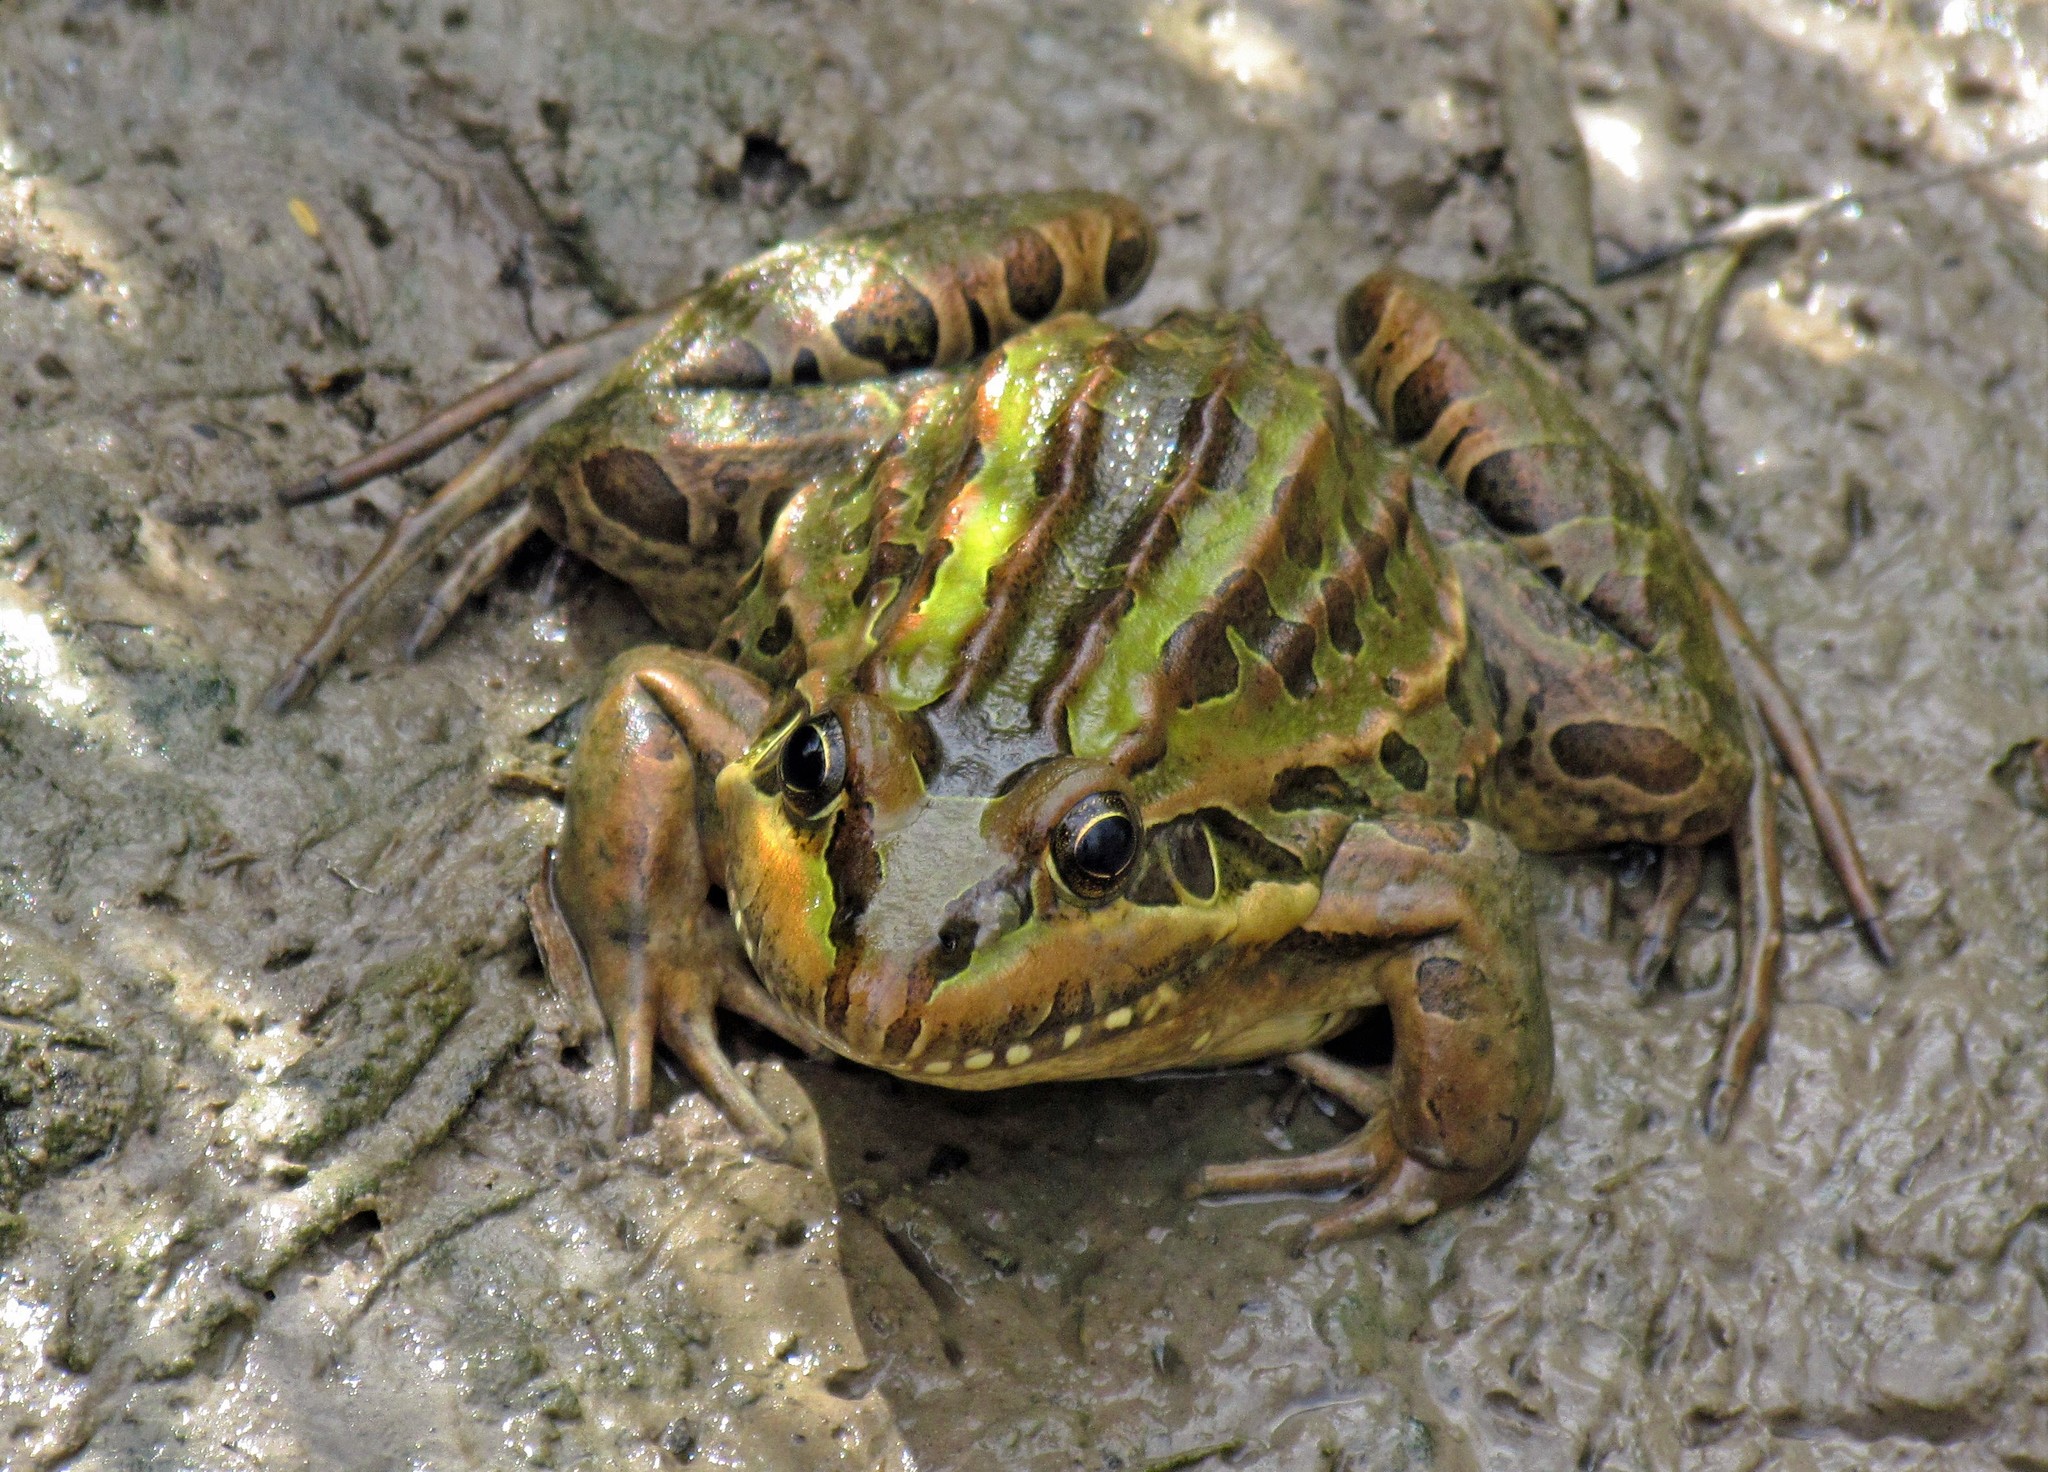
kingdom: Animalia
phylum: Chordata
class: Amphibia
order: Anura
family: Leptodactylidae
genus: Leptodactylus
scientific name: Leptodactylus luctator
